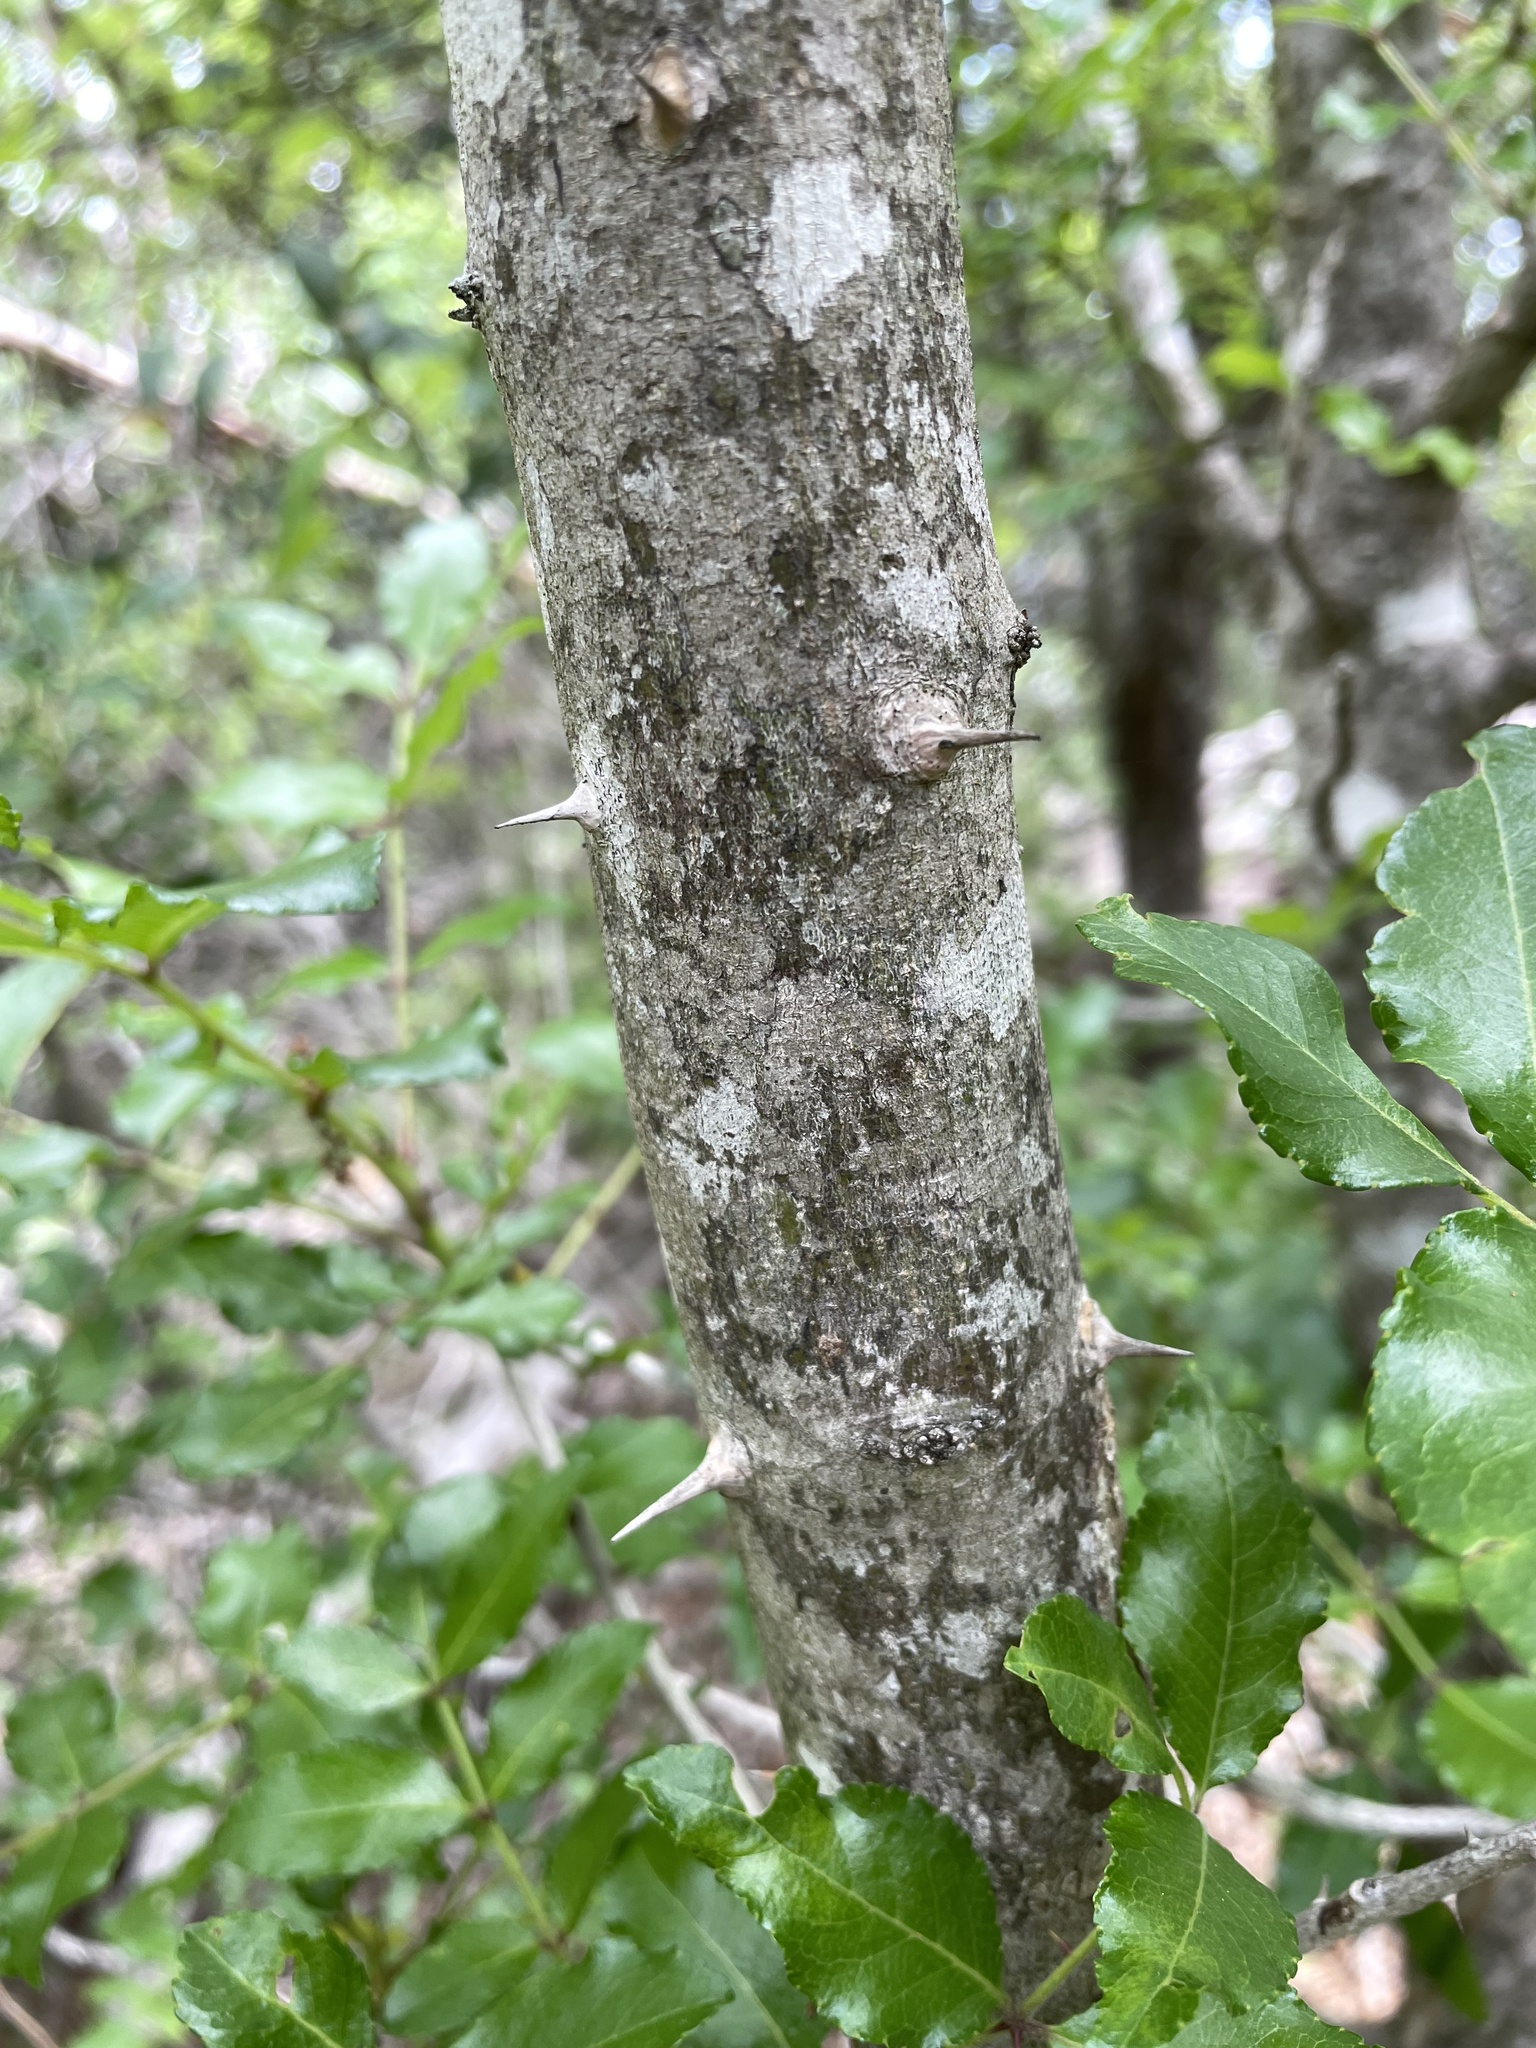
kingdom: Plantae
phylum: Tracheophyta
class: Magnoliopsida
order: Sapindales
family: Rutaceae
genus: Zanthoxylum
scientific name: Zanthoxylum clava-herculis
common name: Hercules'-club
